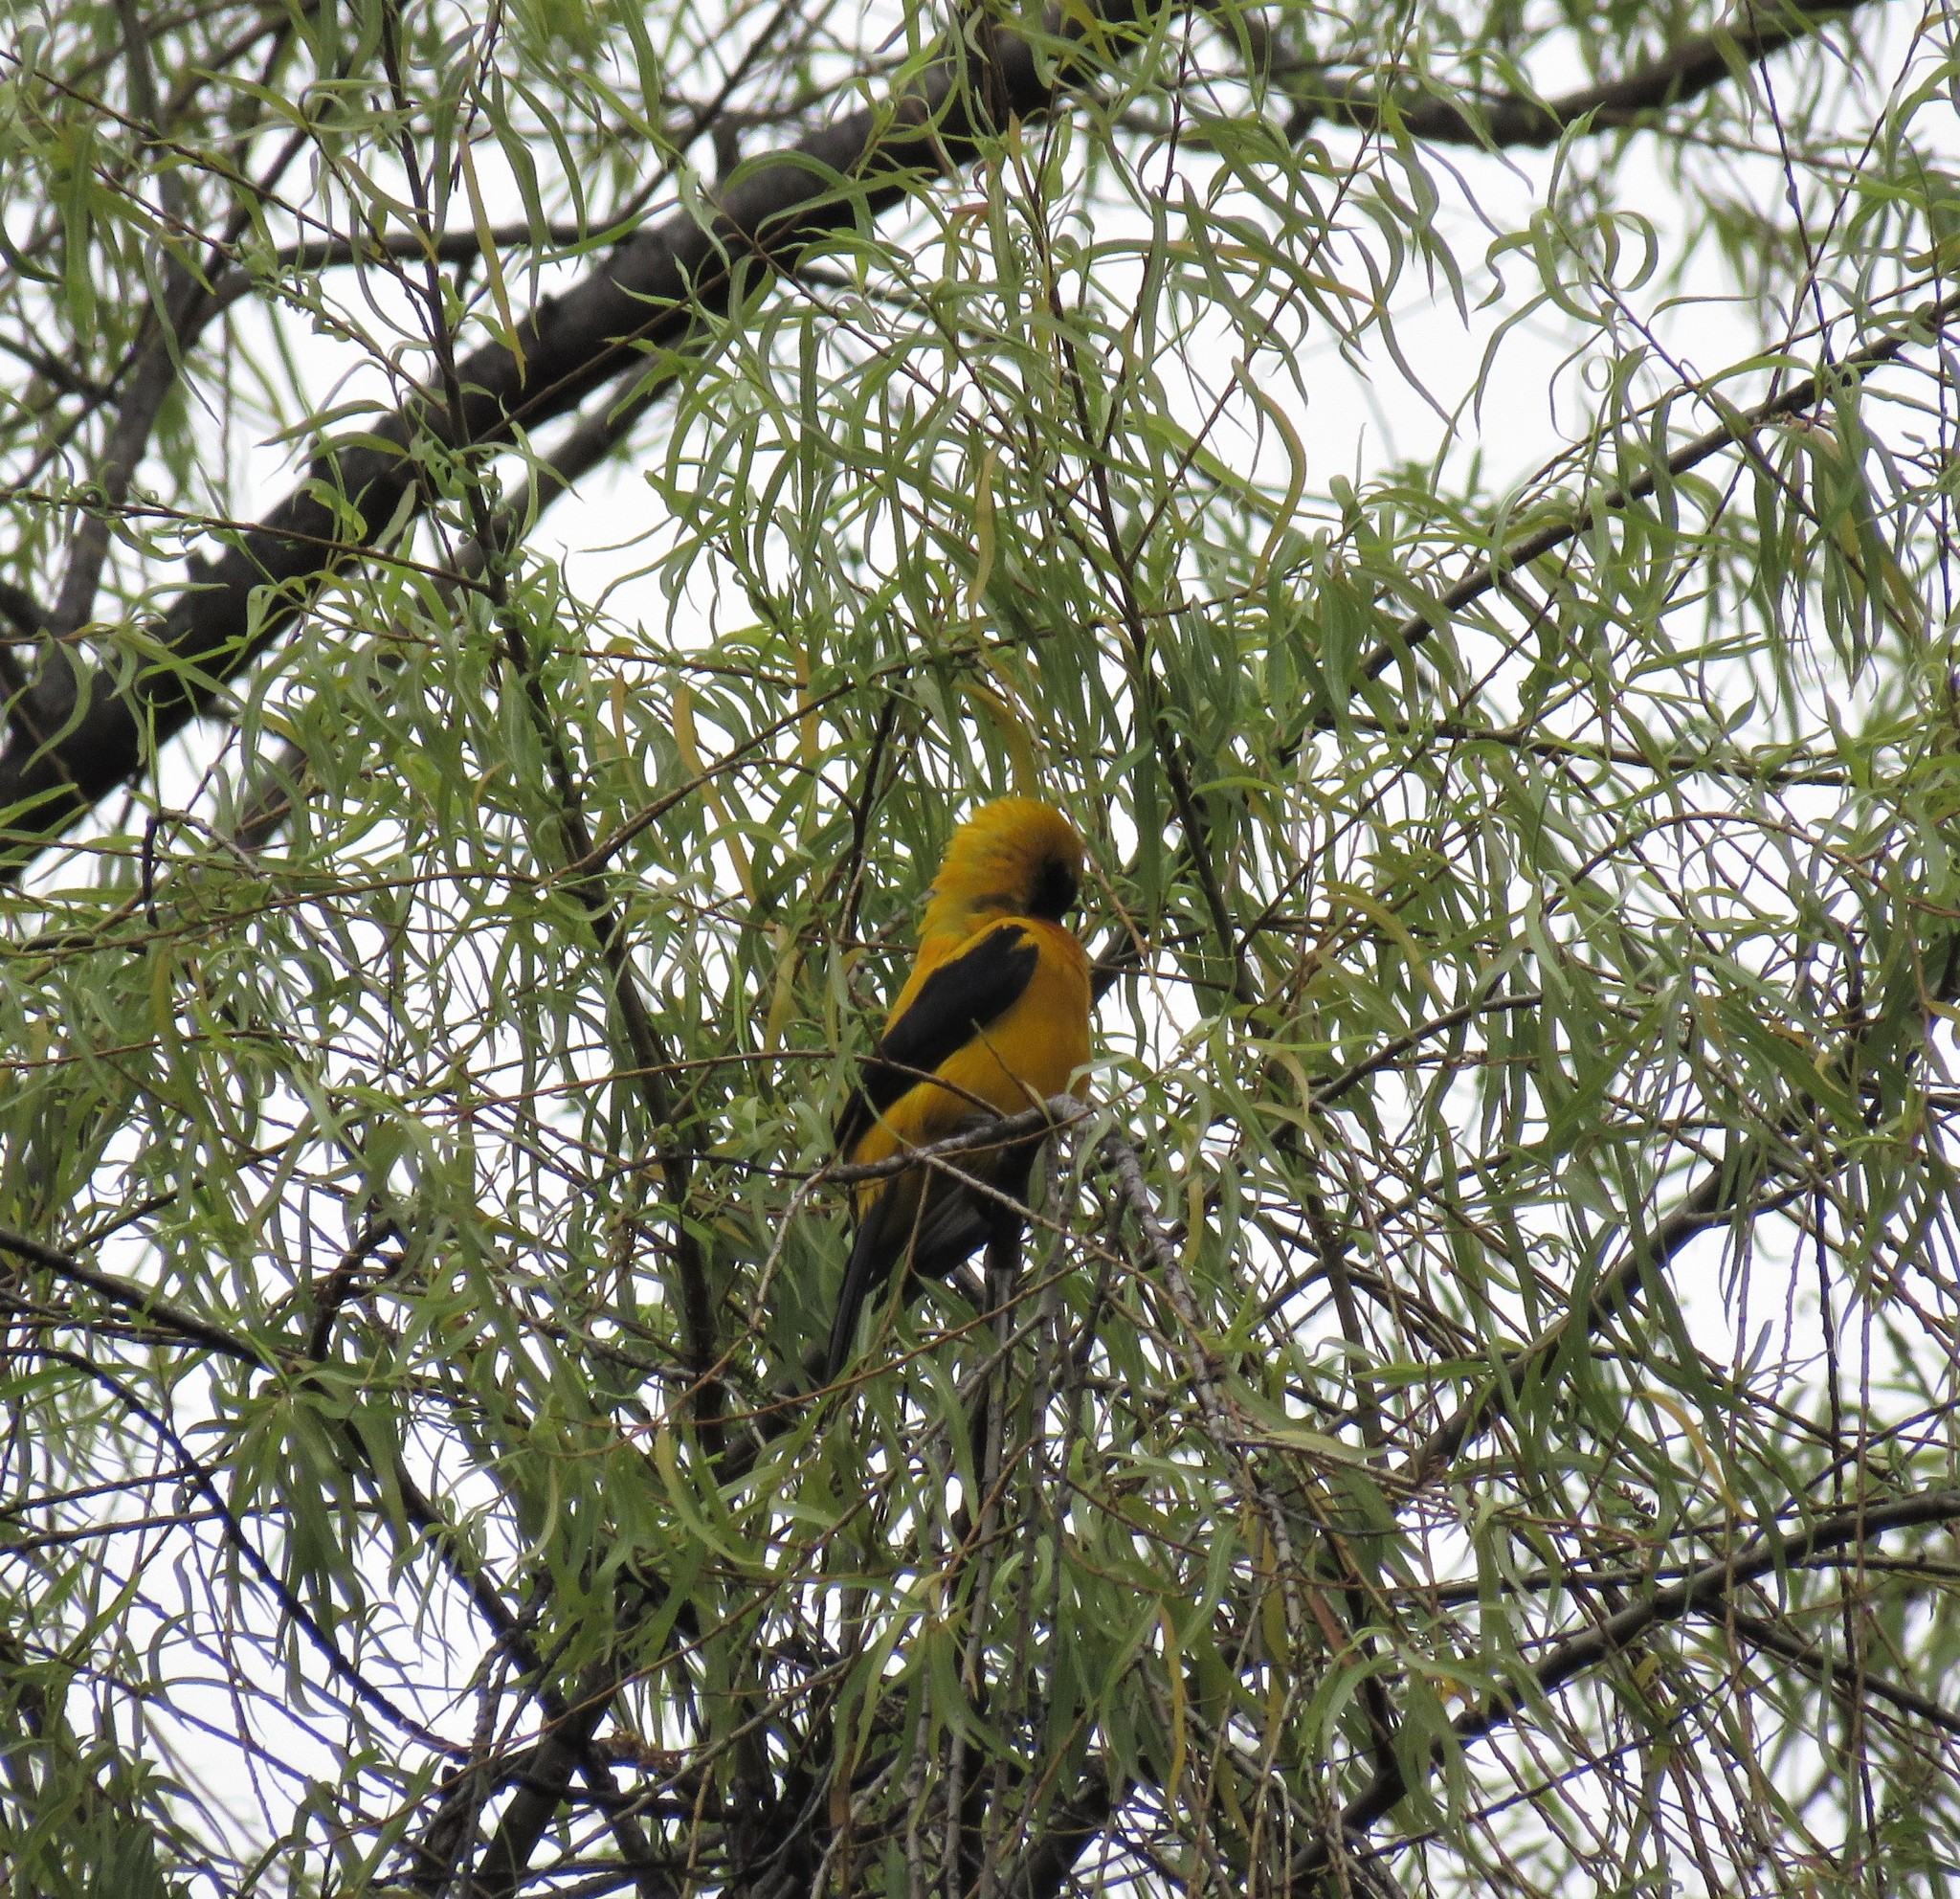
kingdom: Animalia
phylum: Chordata
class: Aves
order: Passeriformes
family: Icteridae
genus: Icterus
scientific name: Icterus chrysater
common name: Yellow-backed oriole
